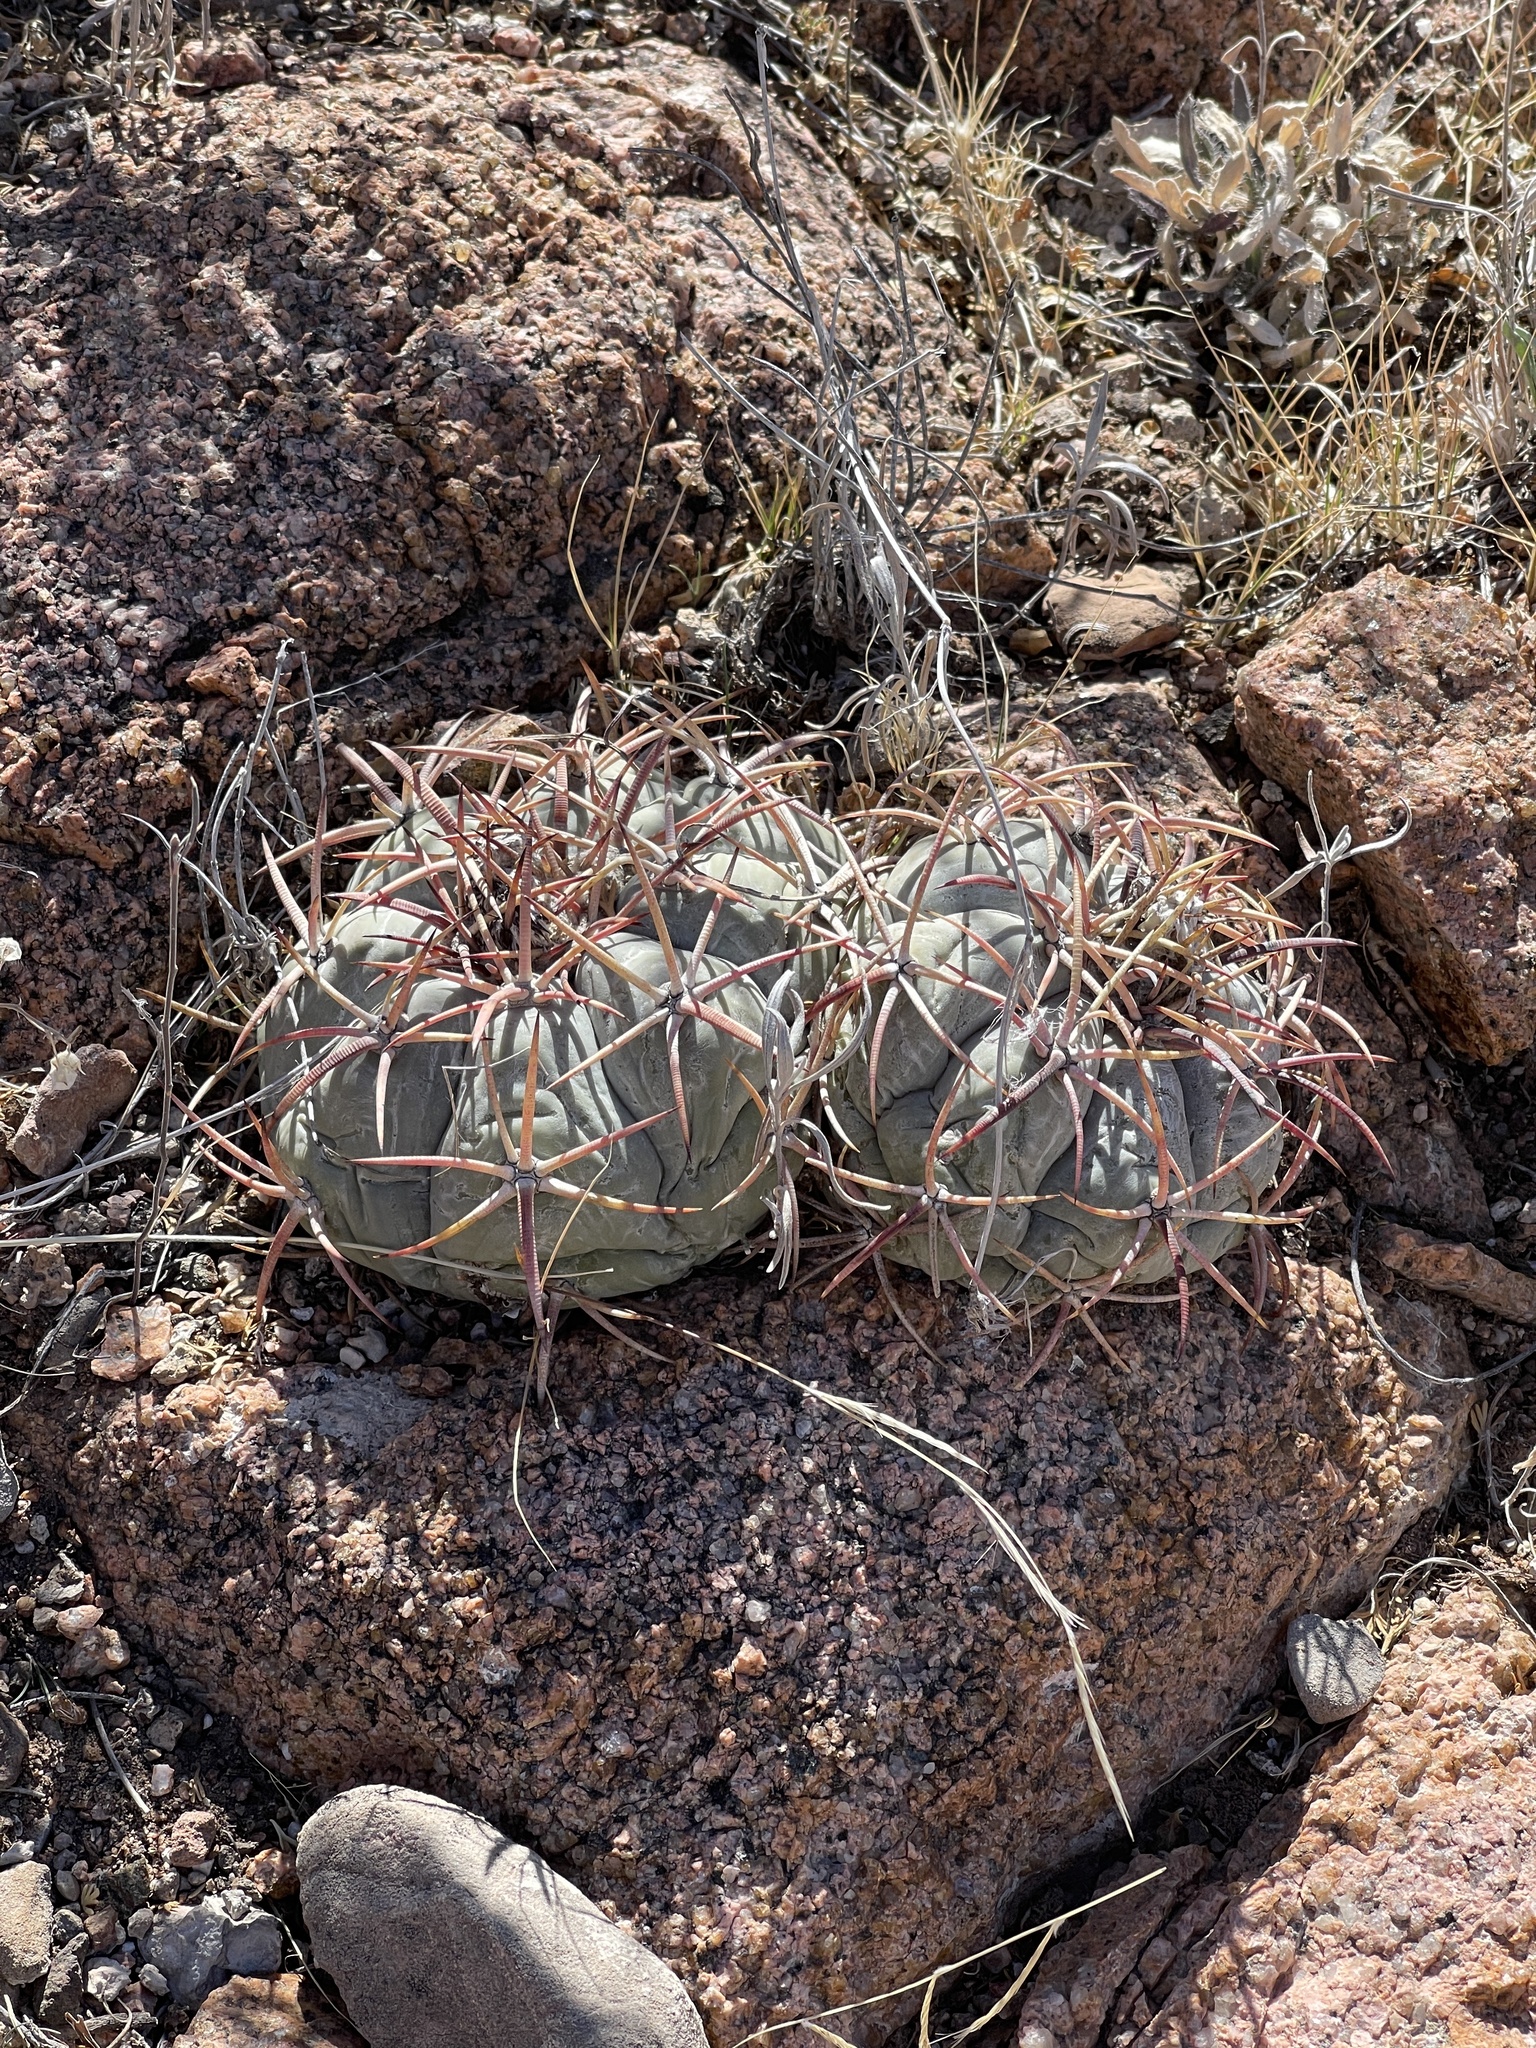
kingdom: Plantae
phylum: Tracheophyta
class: Magnoliopsida
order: Caryophyllales
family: Cactaceae
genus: Echinocactus
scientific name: Echinocactus horizonthalonius
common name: Devilshead
